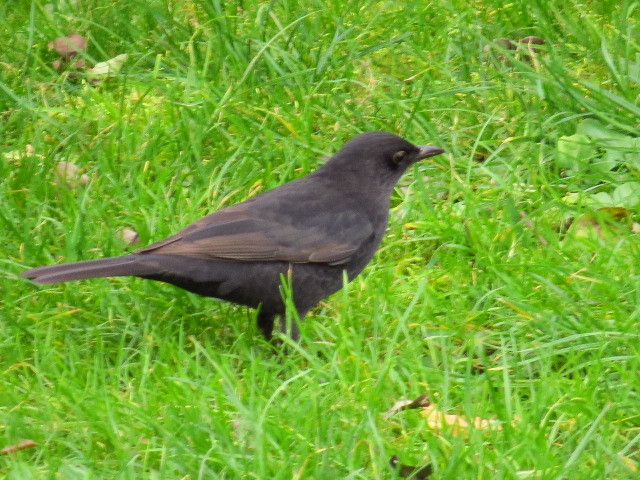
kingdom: Animalia
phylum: Chordata
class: Aves
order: Passeriformes
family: Turdidae
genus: Turdus
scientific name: Turdus merula
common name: Common blackbird
